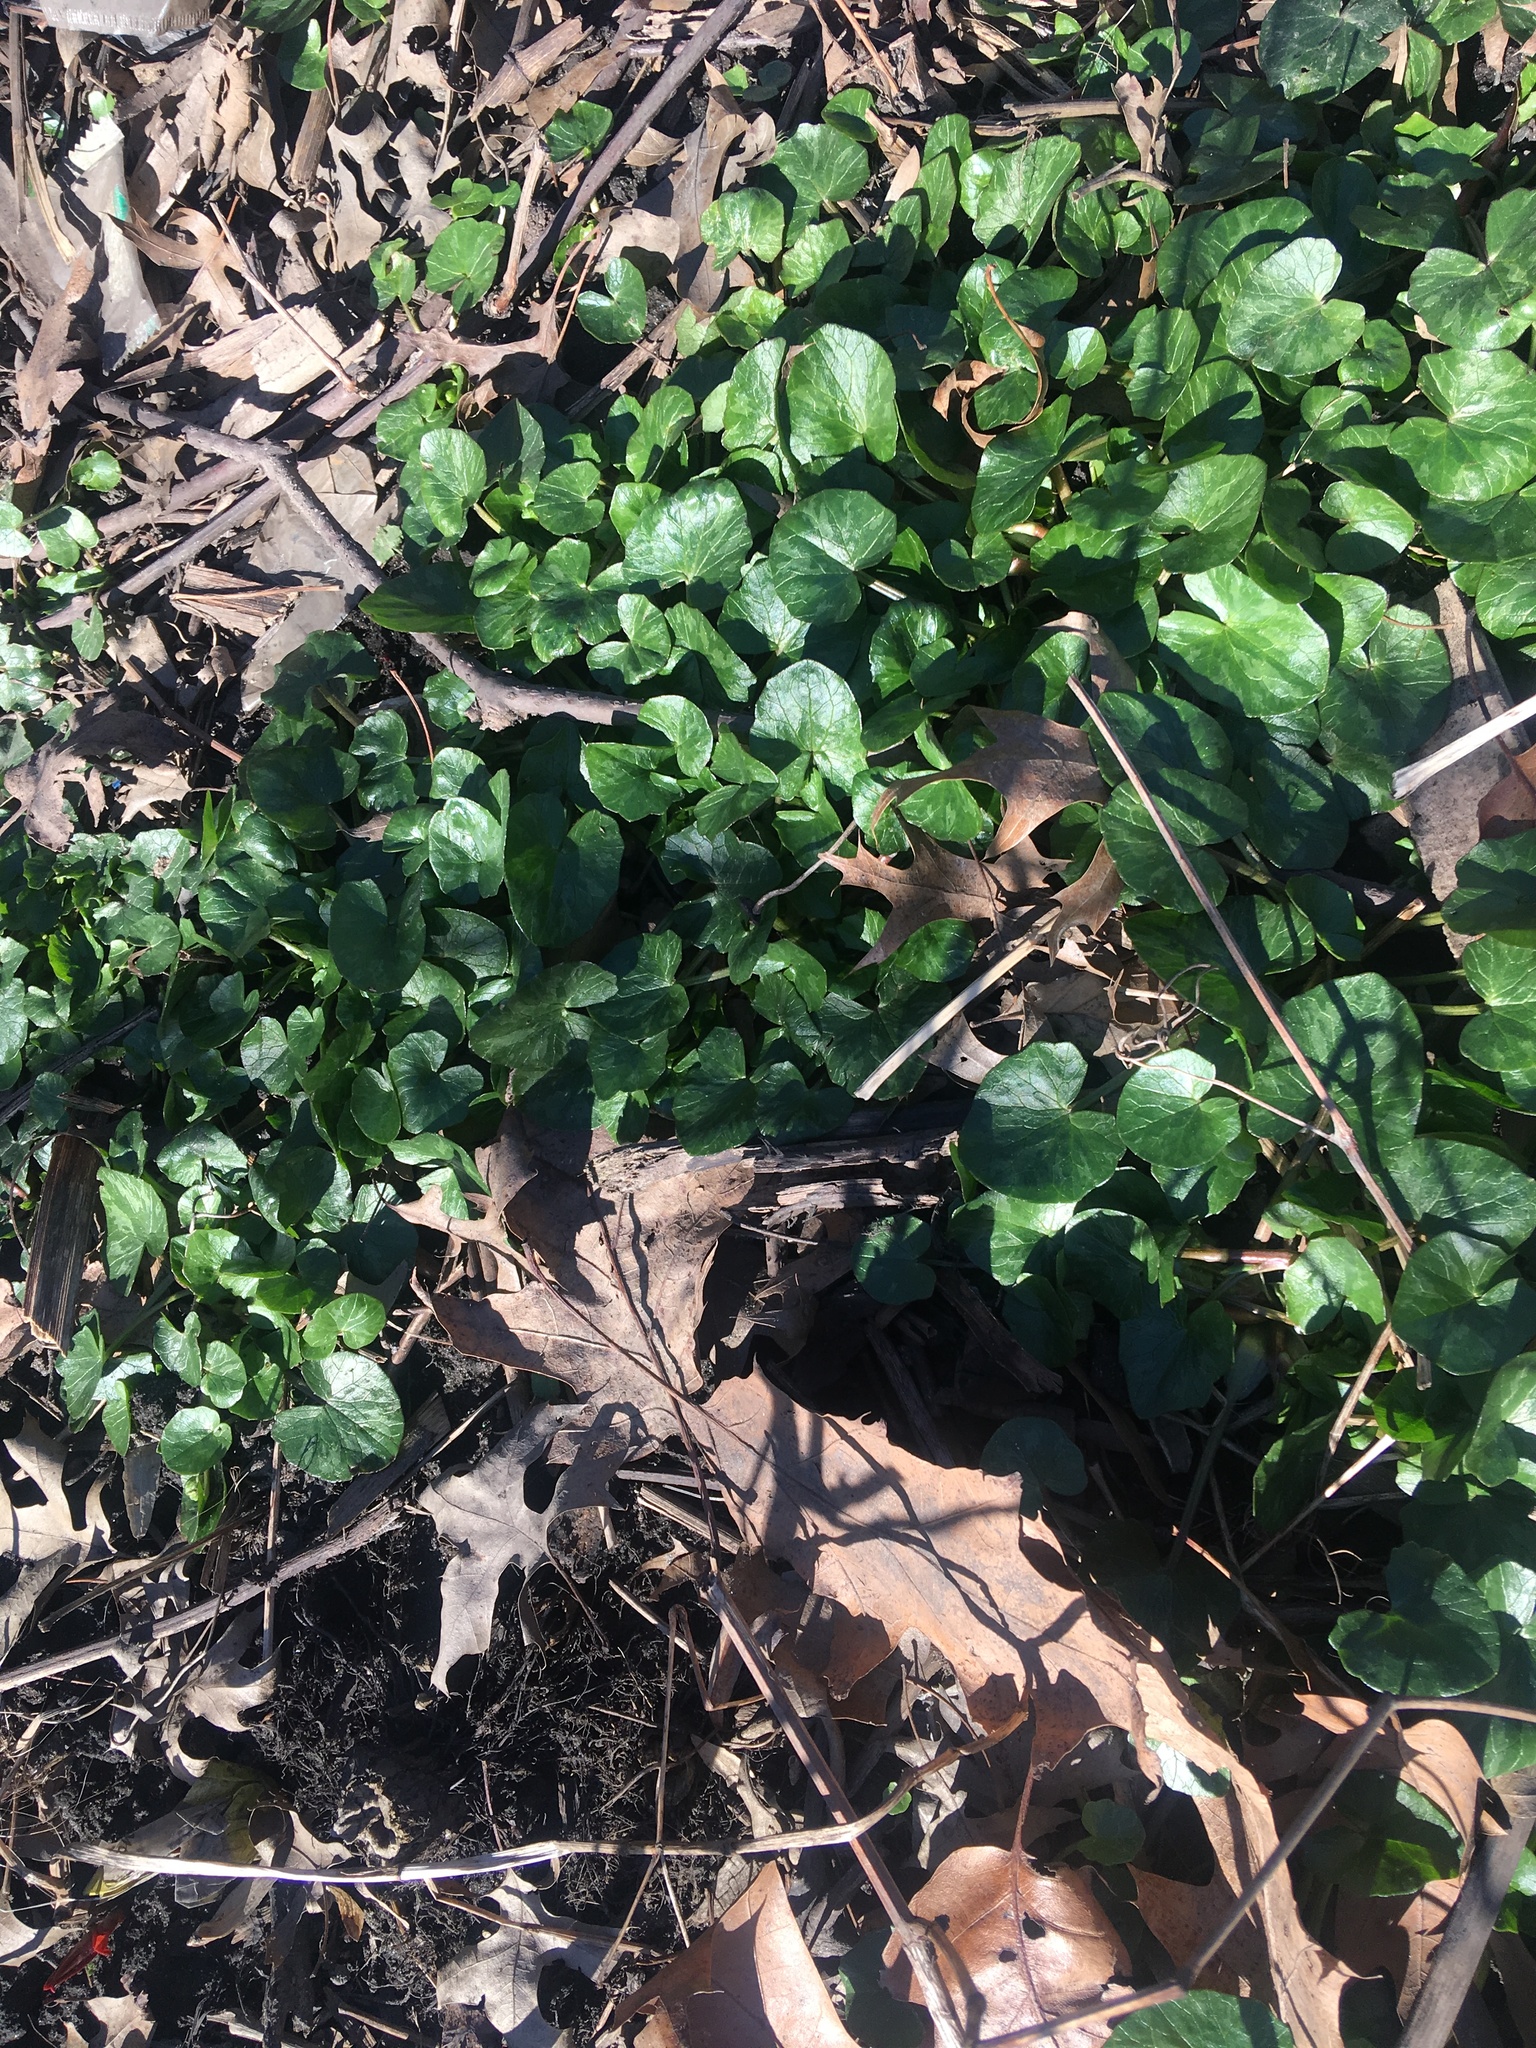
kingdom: Plantae
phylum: Tracheophyta
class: Magnoliopsida
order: Ranunculales
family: Ranunculaceae
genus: Ficaria
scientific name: Ficaria verna
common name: Lesser celandine
